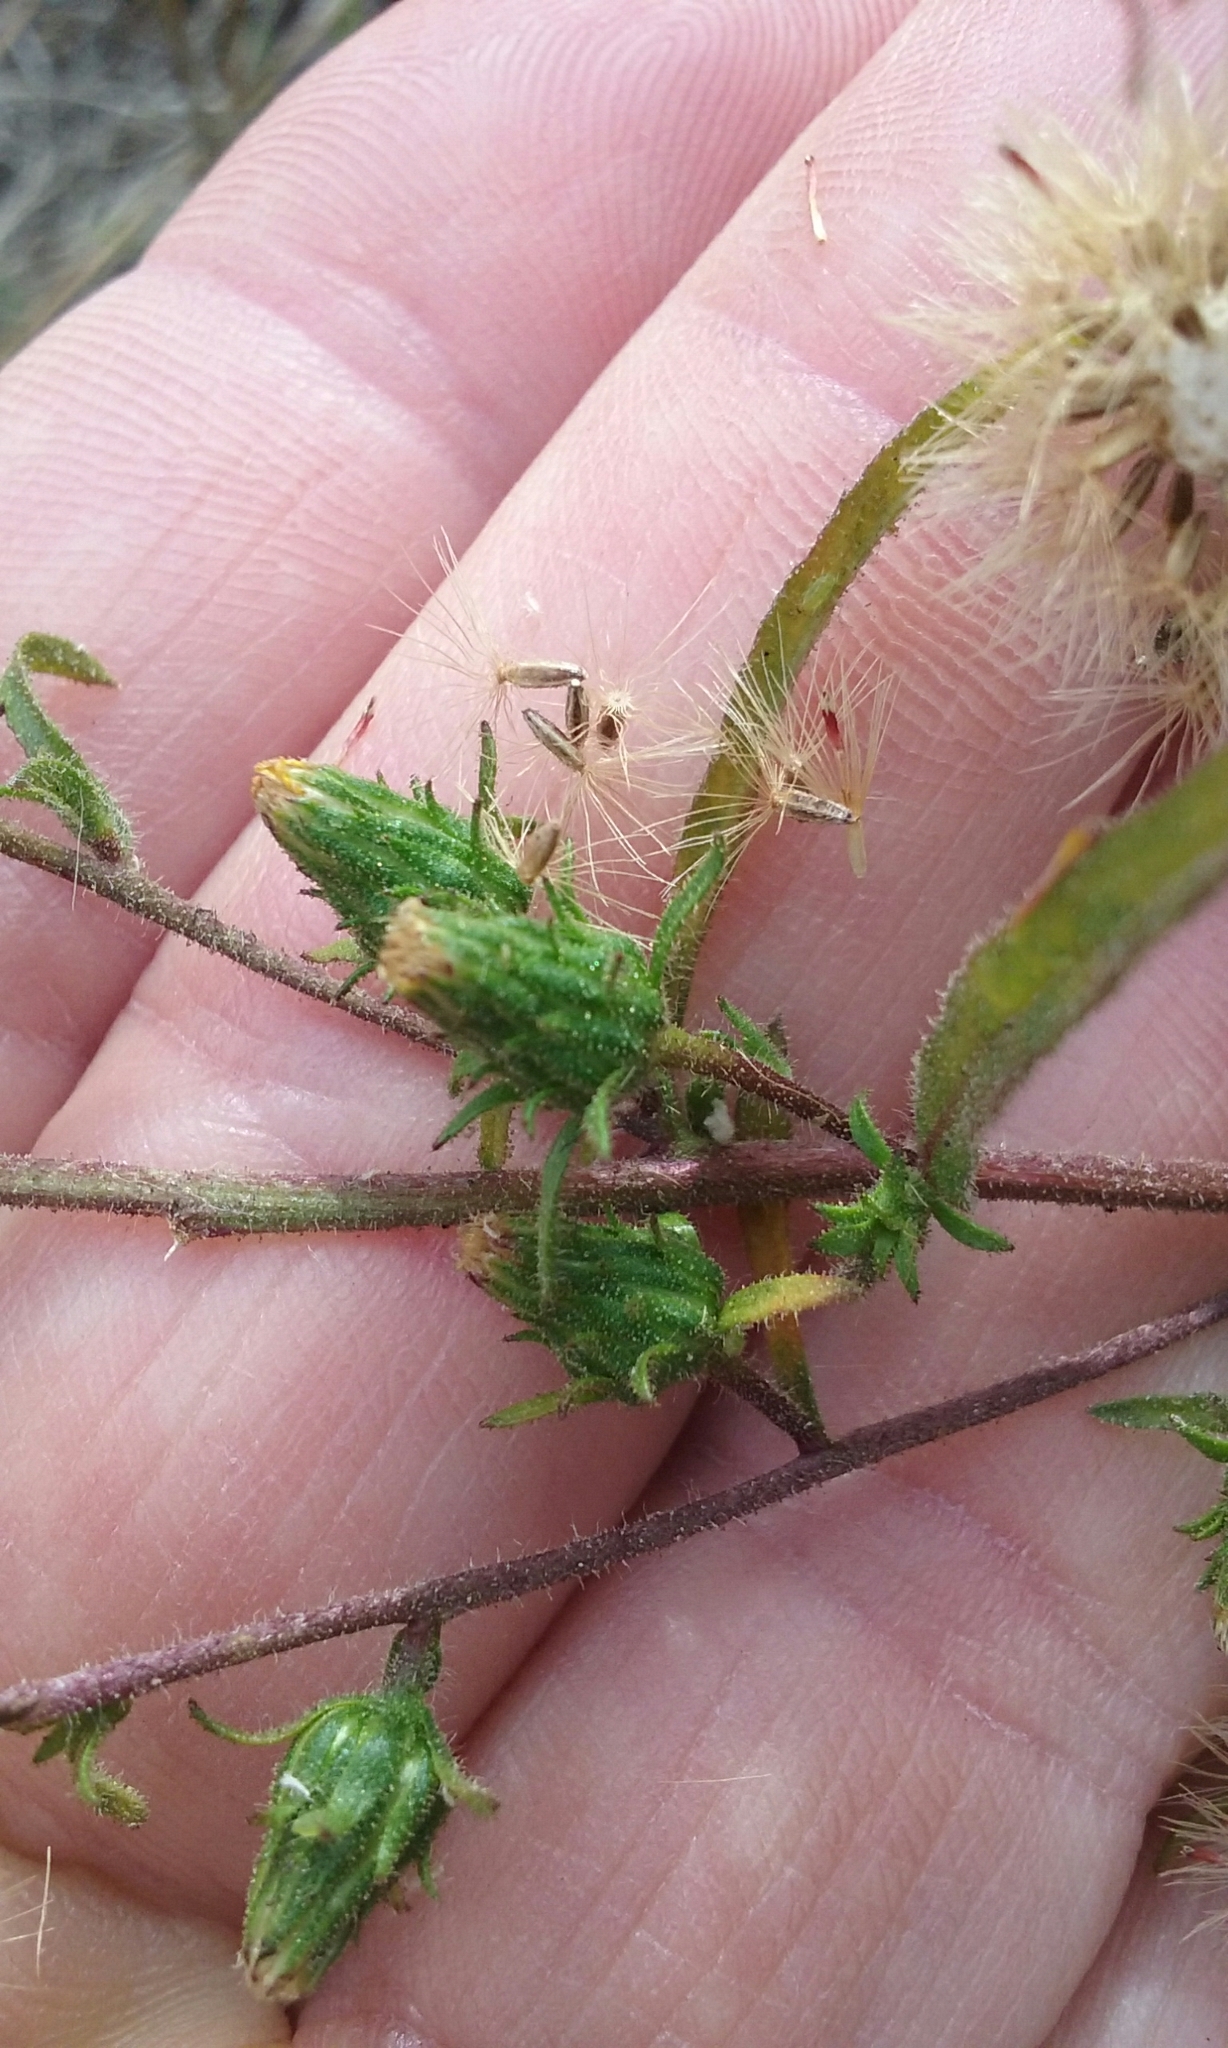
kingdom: Plantae
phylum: Tracheophyta
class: Magnoliopsida
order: Asterales
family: Asteraceae
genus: Dittrichia
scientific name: Dittrichia graveolens
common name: Stinking fleabane
